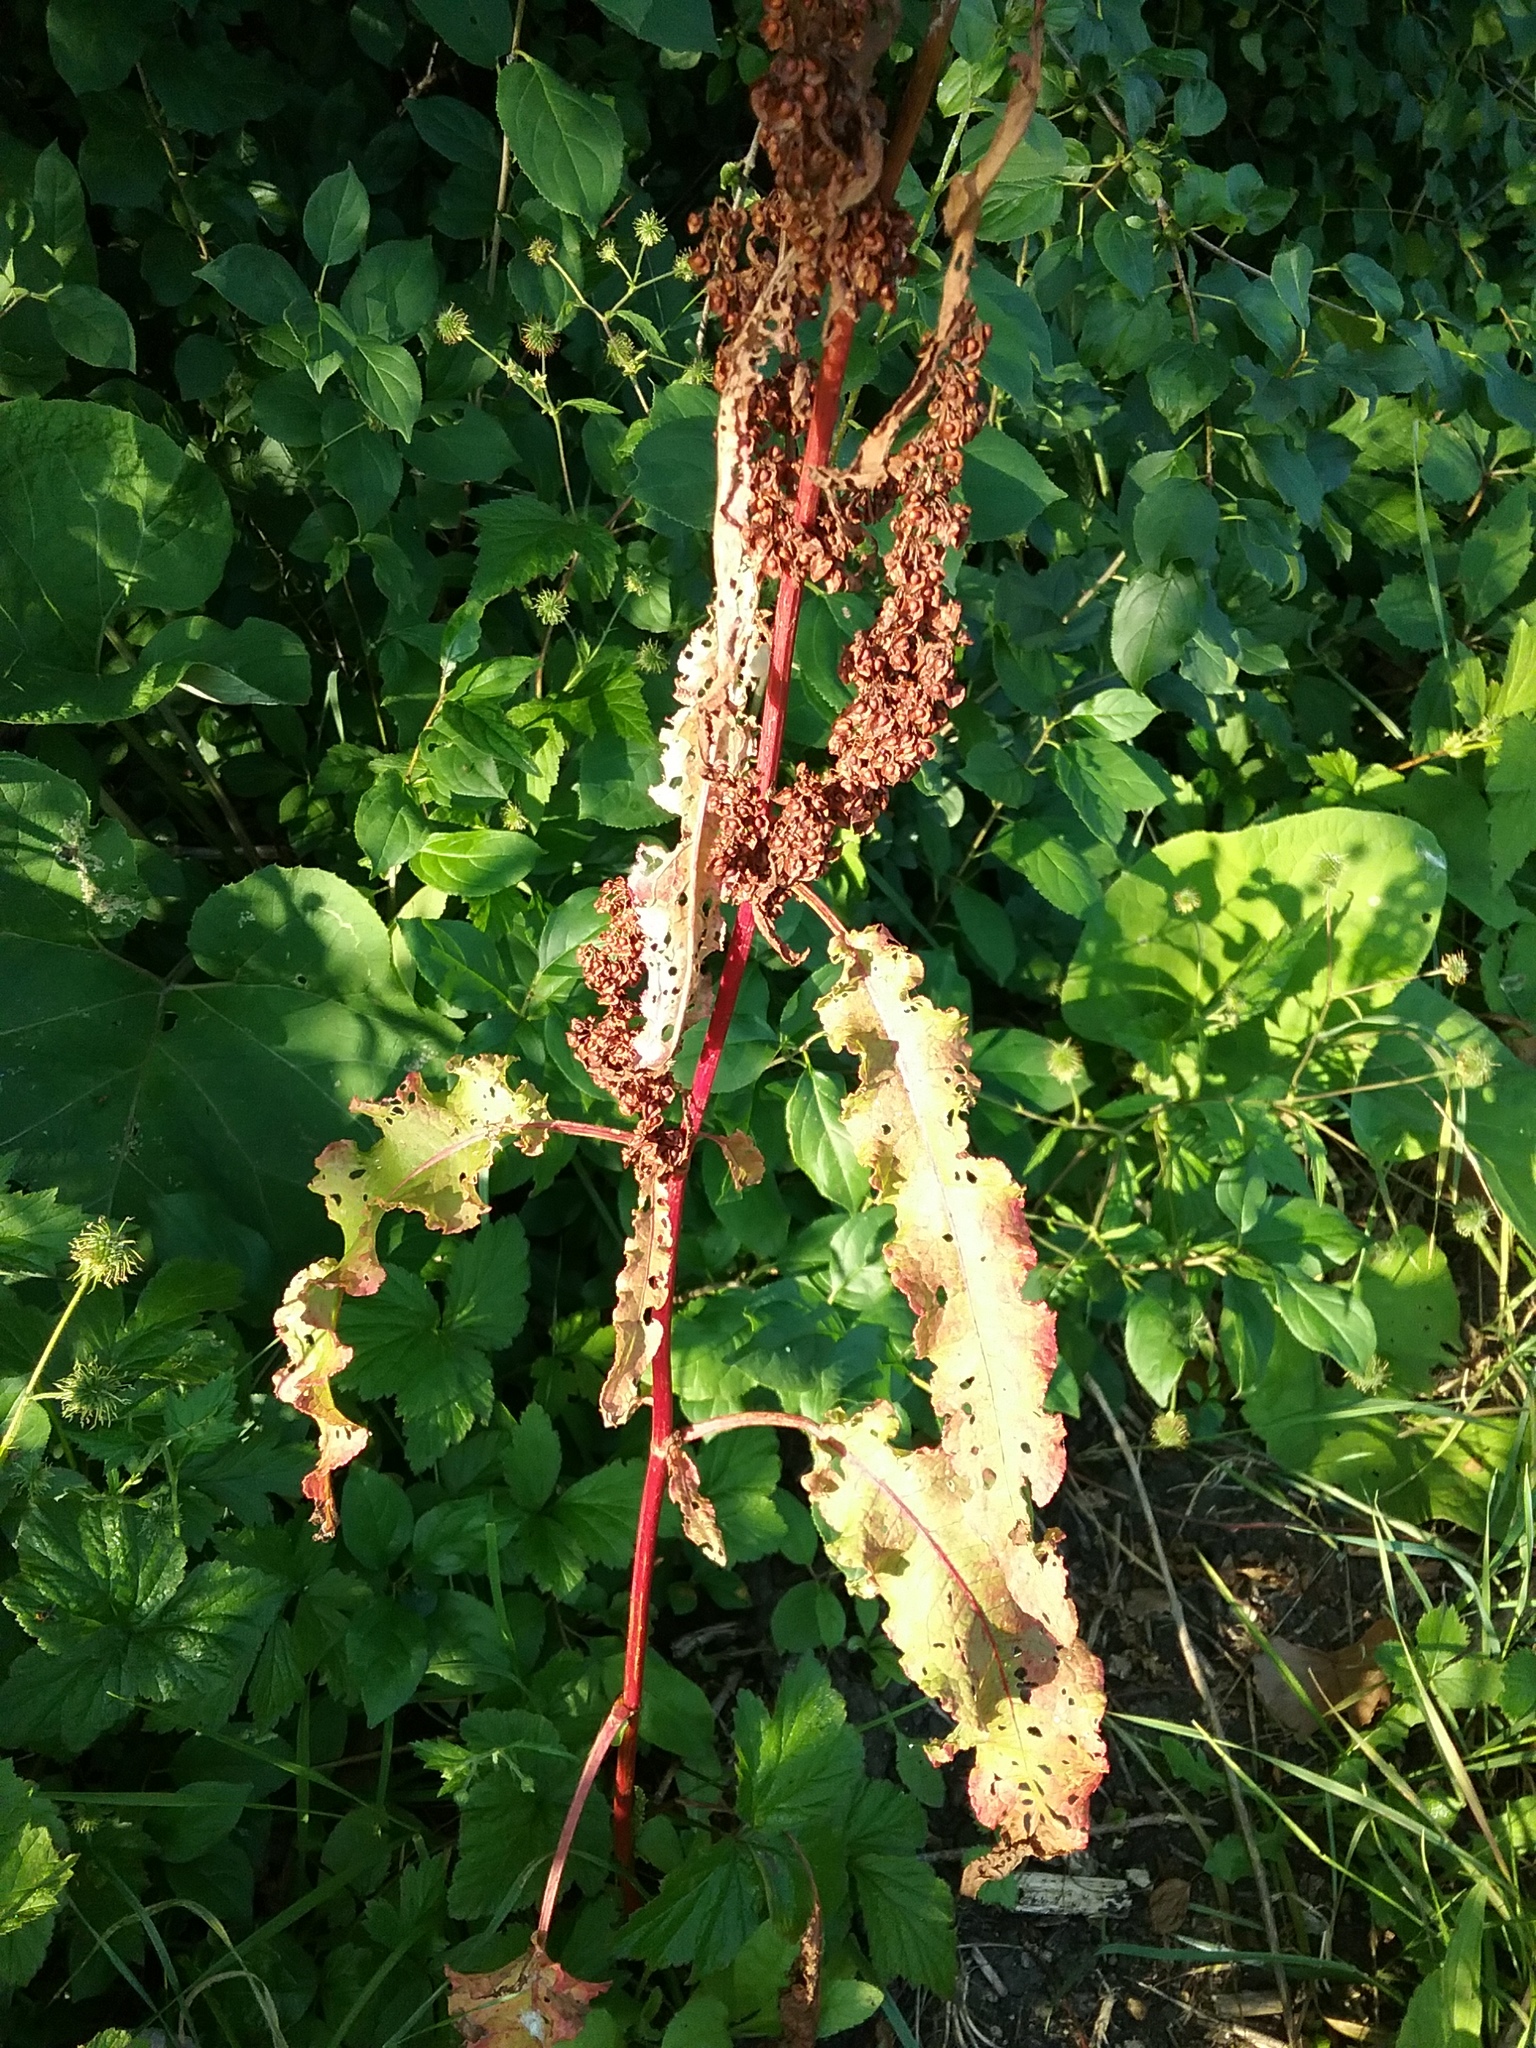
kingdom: Plantae
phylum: Tracheophyta
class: Magnoliopsida
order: Caryophyllales
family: Polygonaceae
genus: Rumex
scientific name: Rumex crispus
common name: Curled dock
